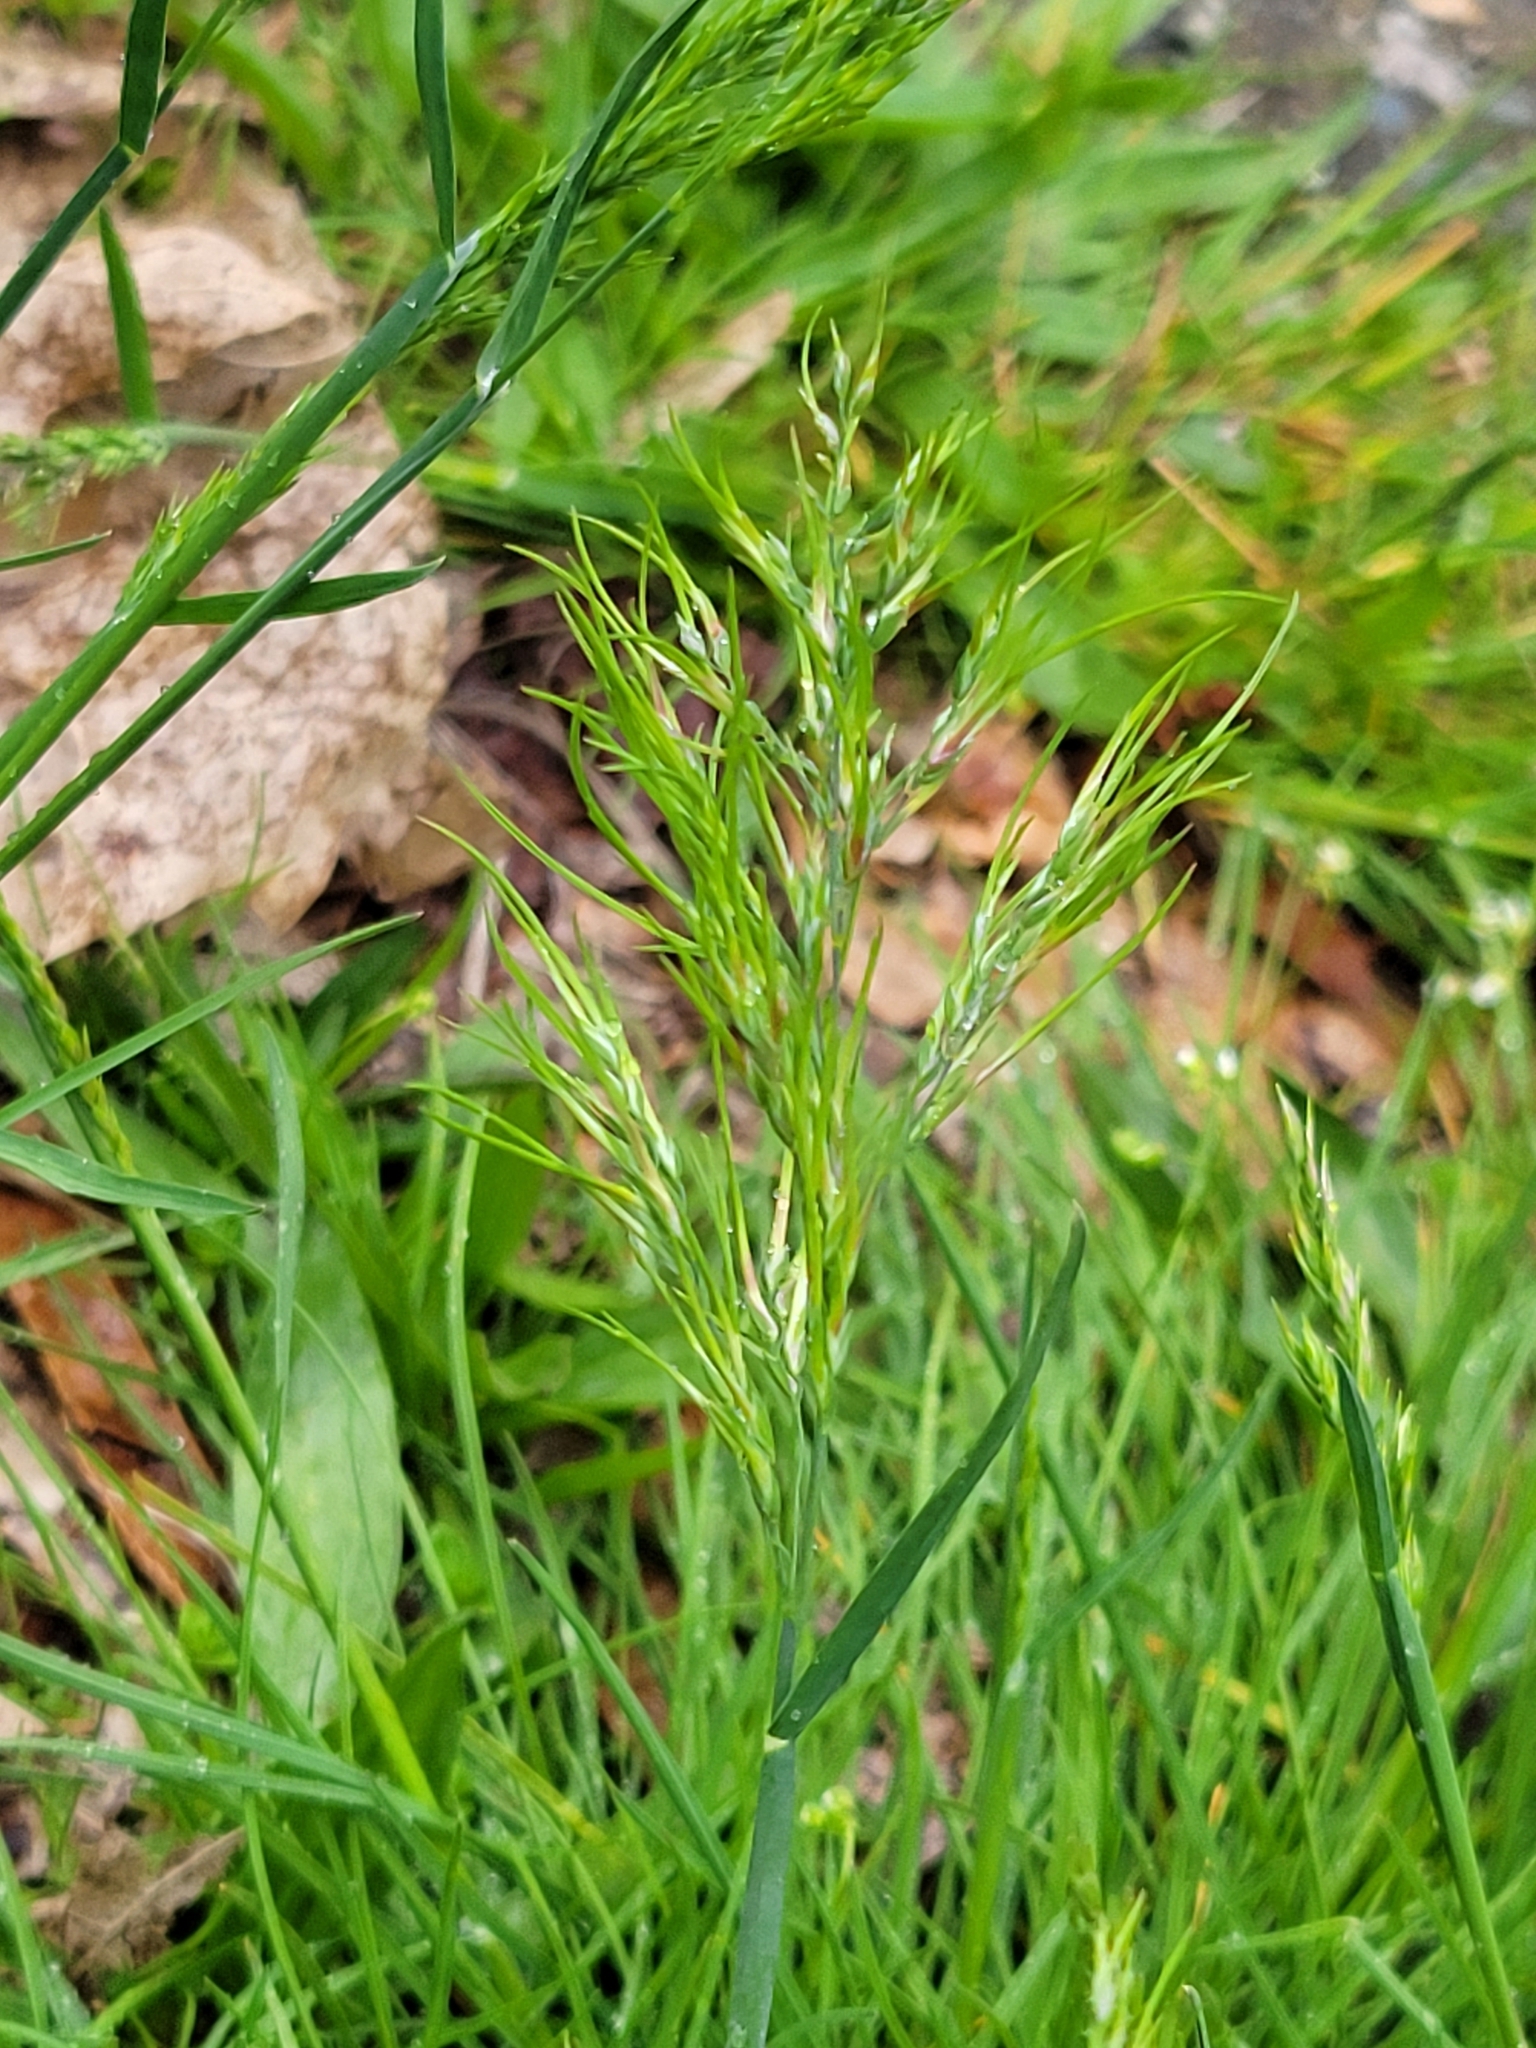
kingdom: Plantae
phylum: Tracheophyta
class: Liliopsida
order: Poales
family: Poaceae
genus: Poa
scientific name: Poa bulbosa
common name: Bulbous bluegrass
